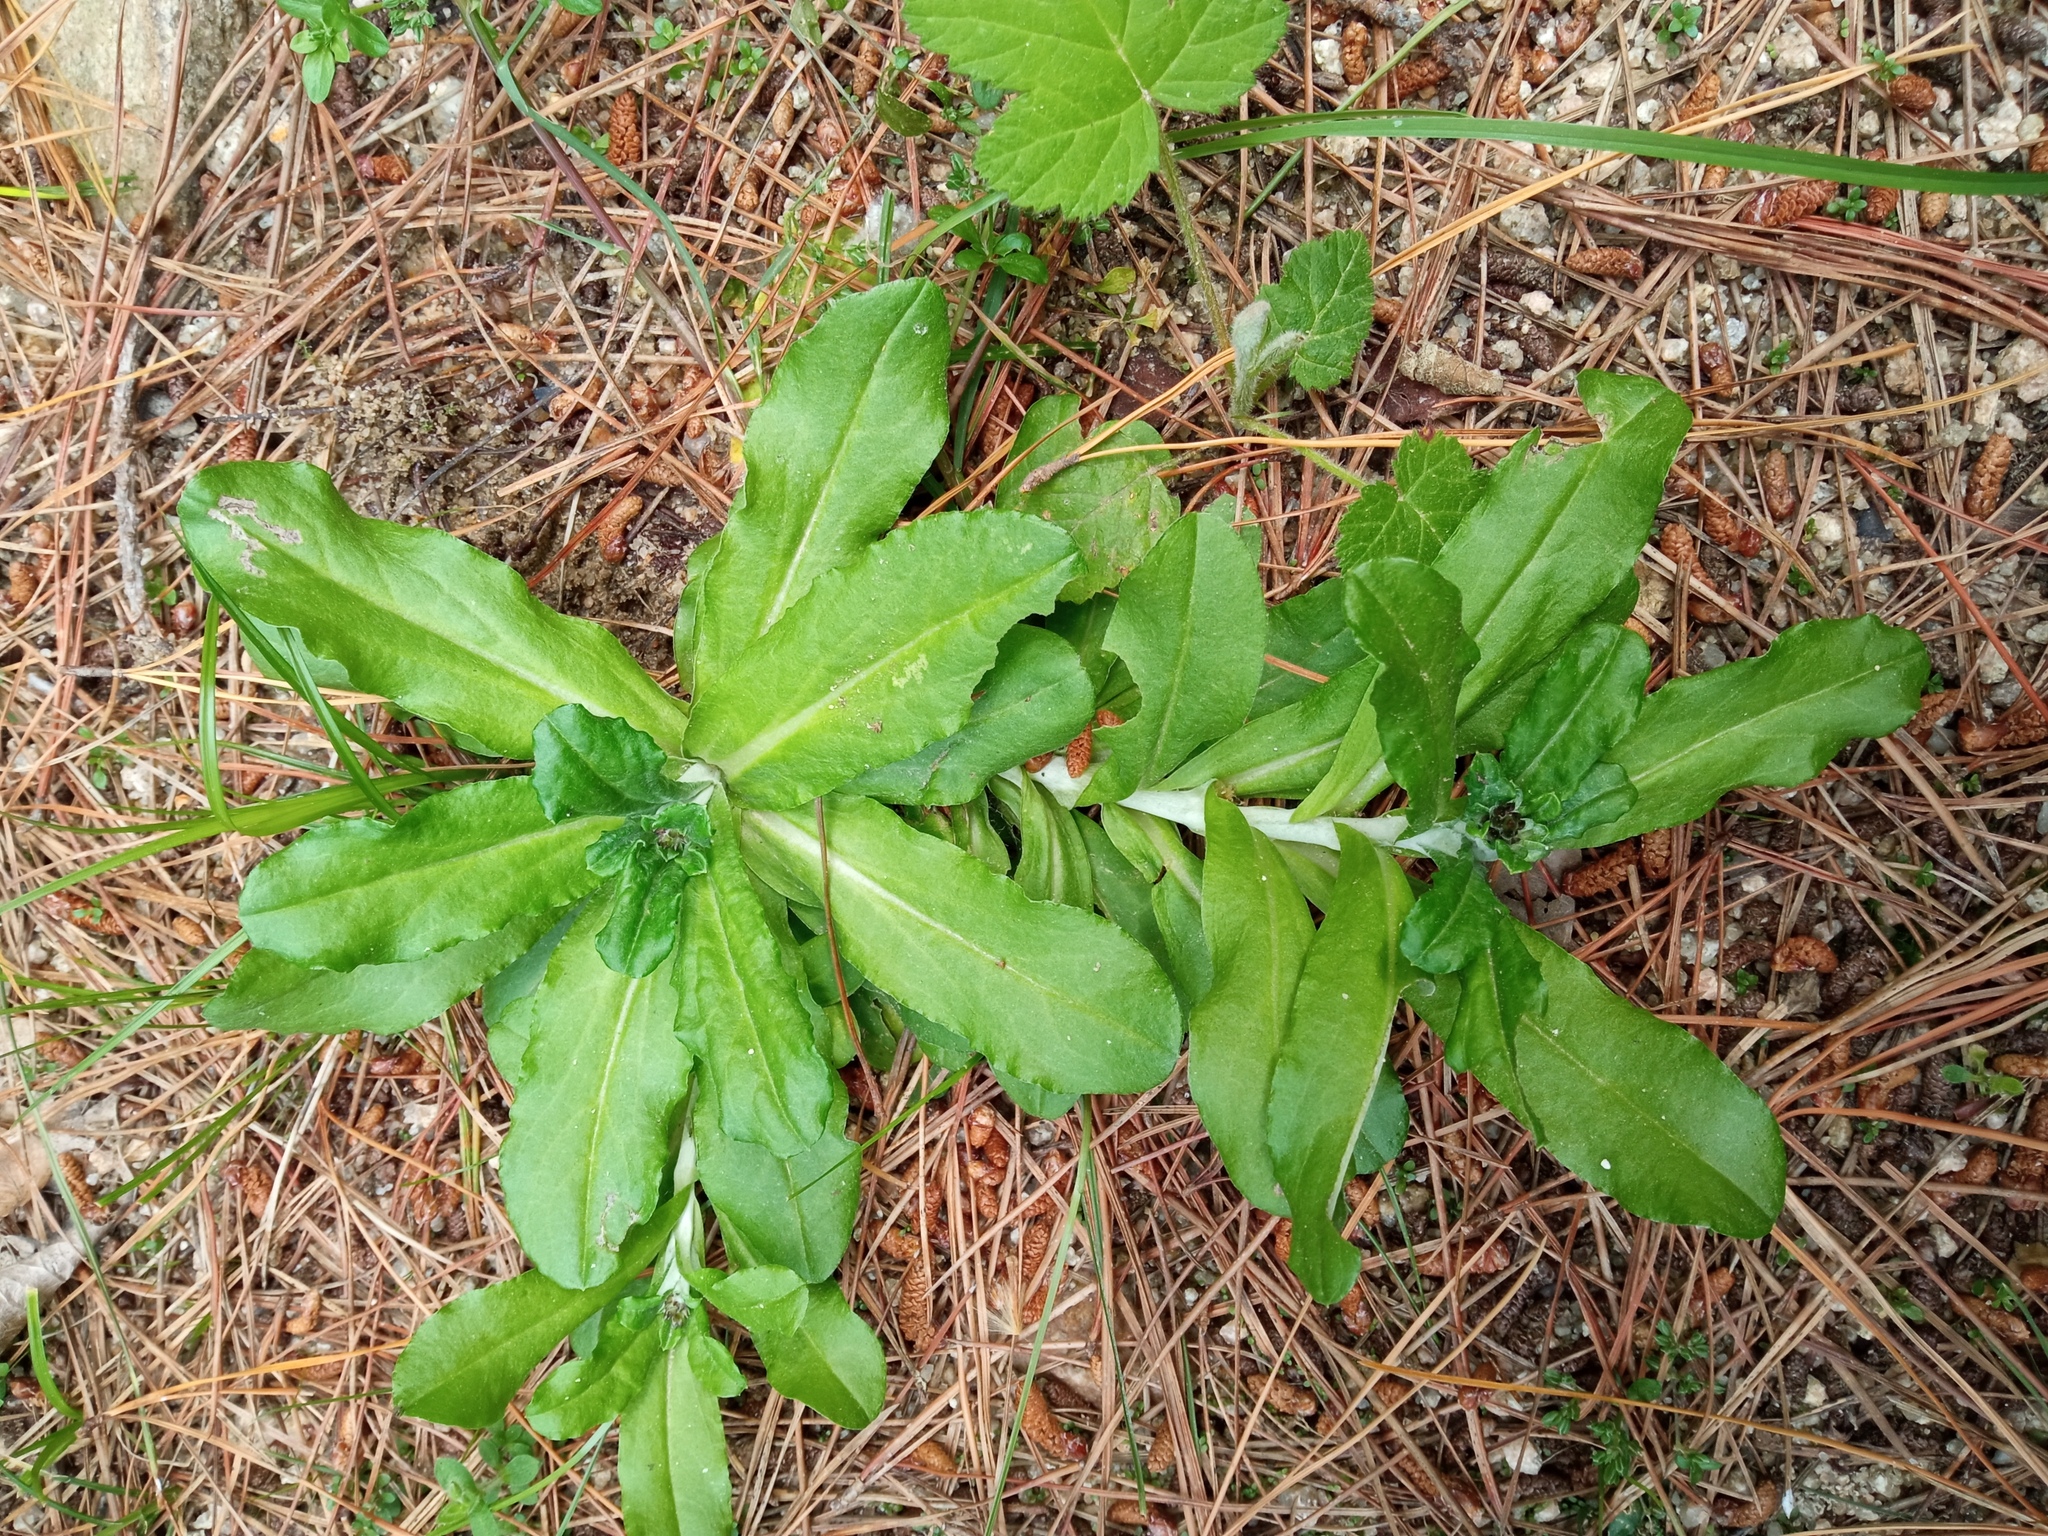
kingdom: Plantae
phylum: Tracheophyta
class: Magnoliopsida
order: Asterales
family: Asteraceae
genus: Gamochaeta
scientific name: Gamochaeta americana
